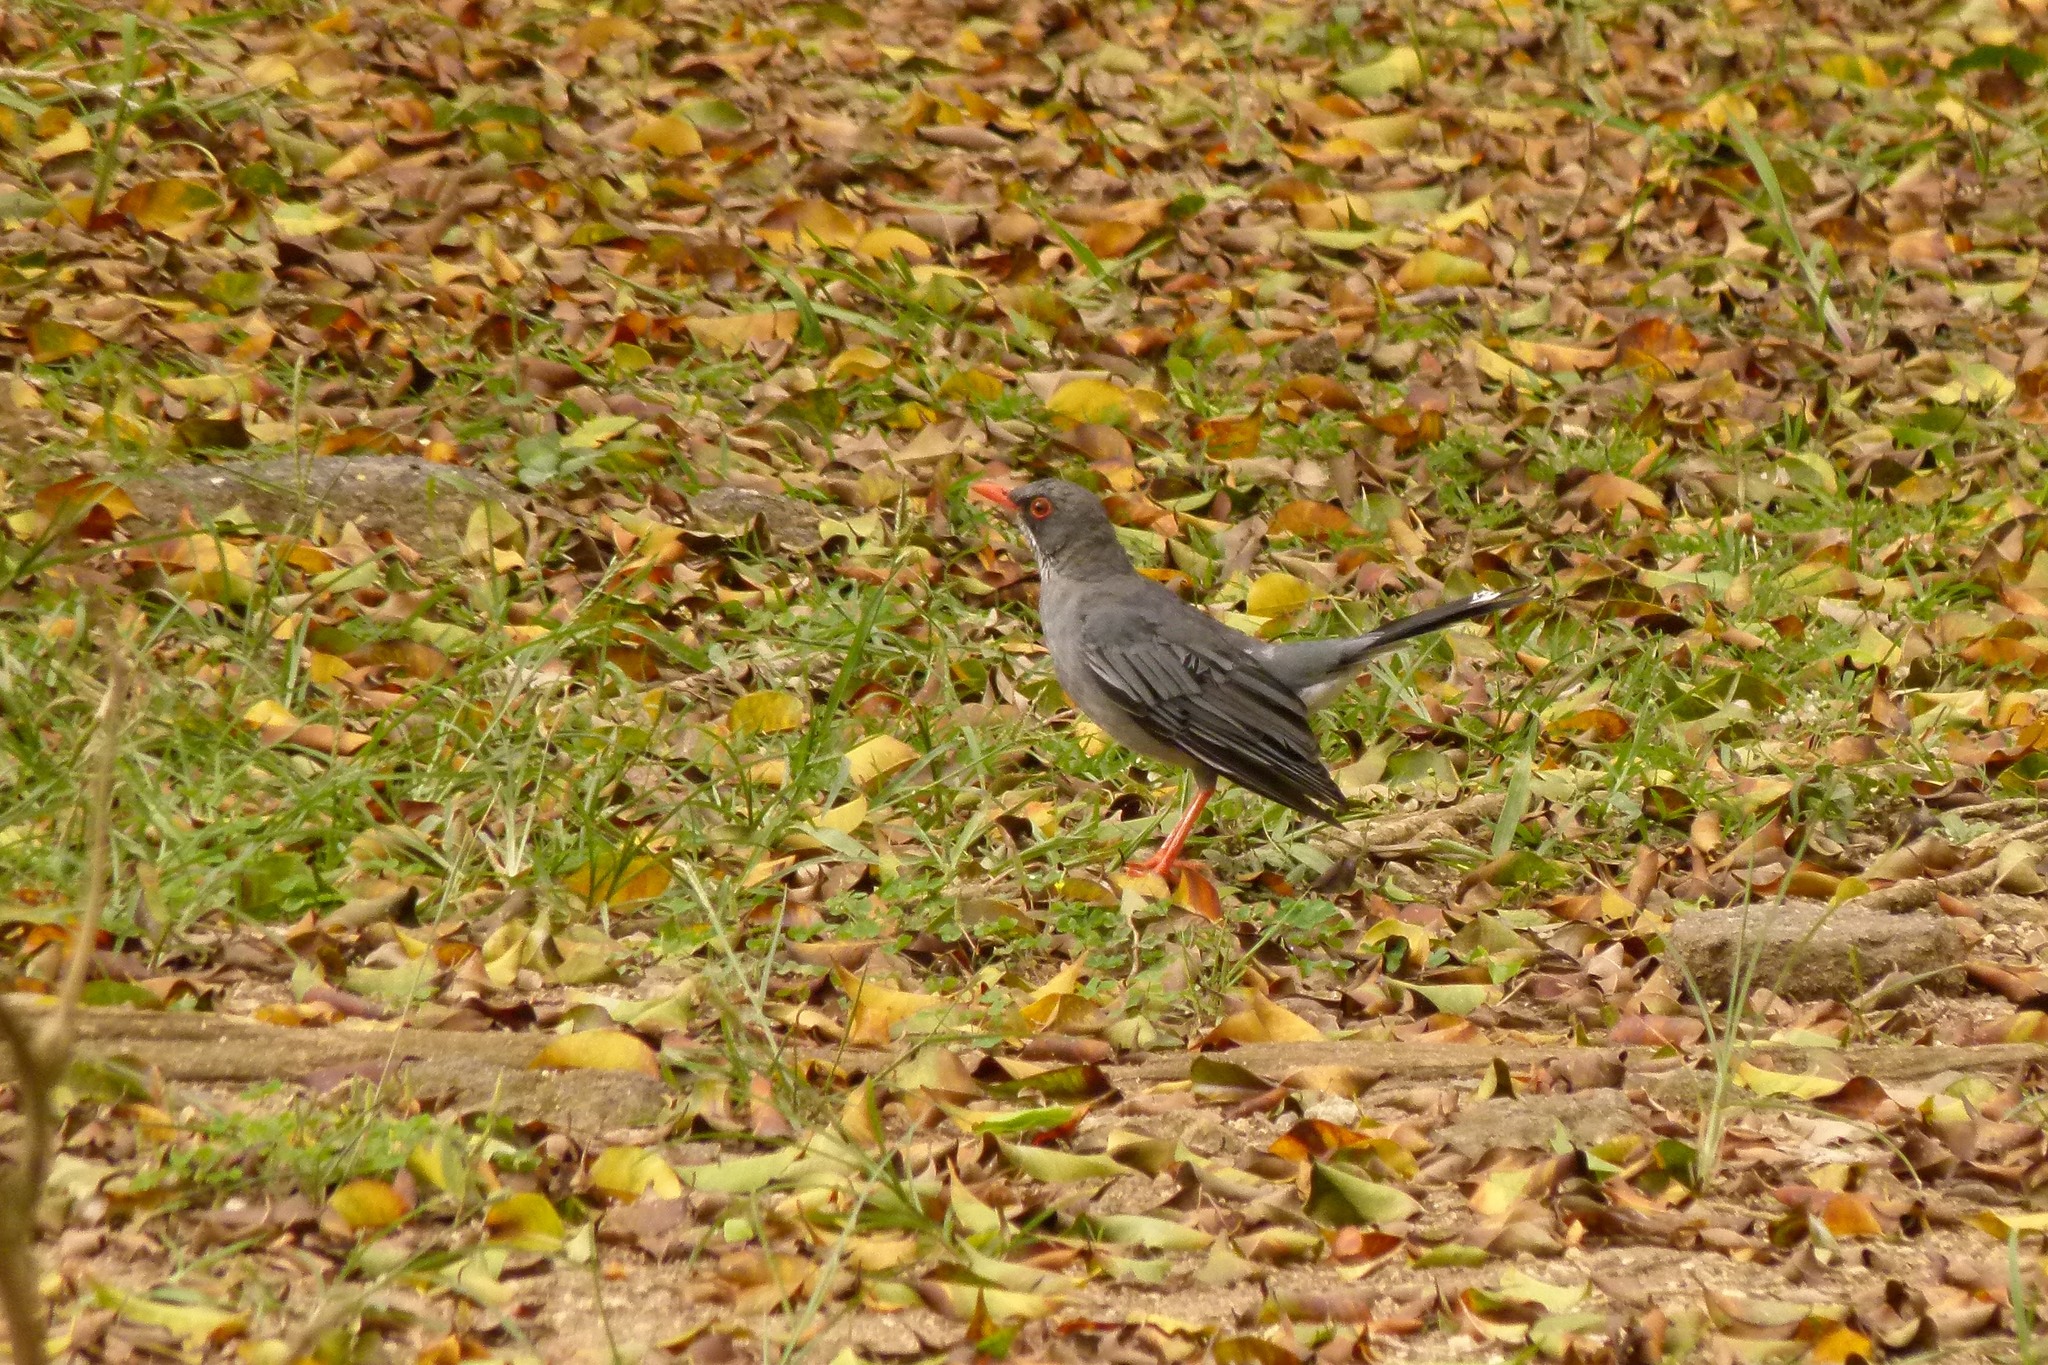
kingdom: Animalia
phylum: Chordata
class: Aves
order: Passeriformes
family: Turdidae
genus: Turdus
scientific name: Turdus plumbeus
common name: Red-legged thrush
